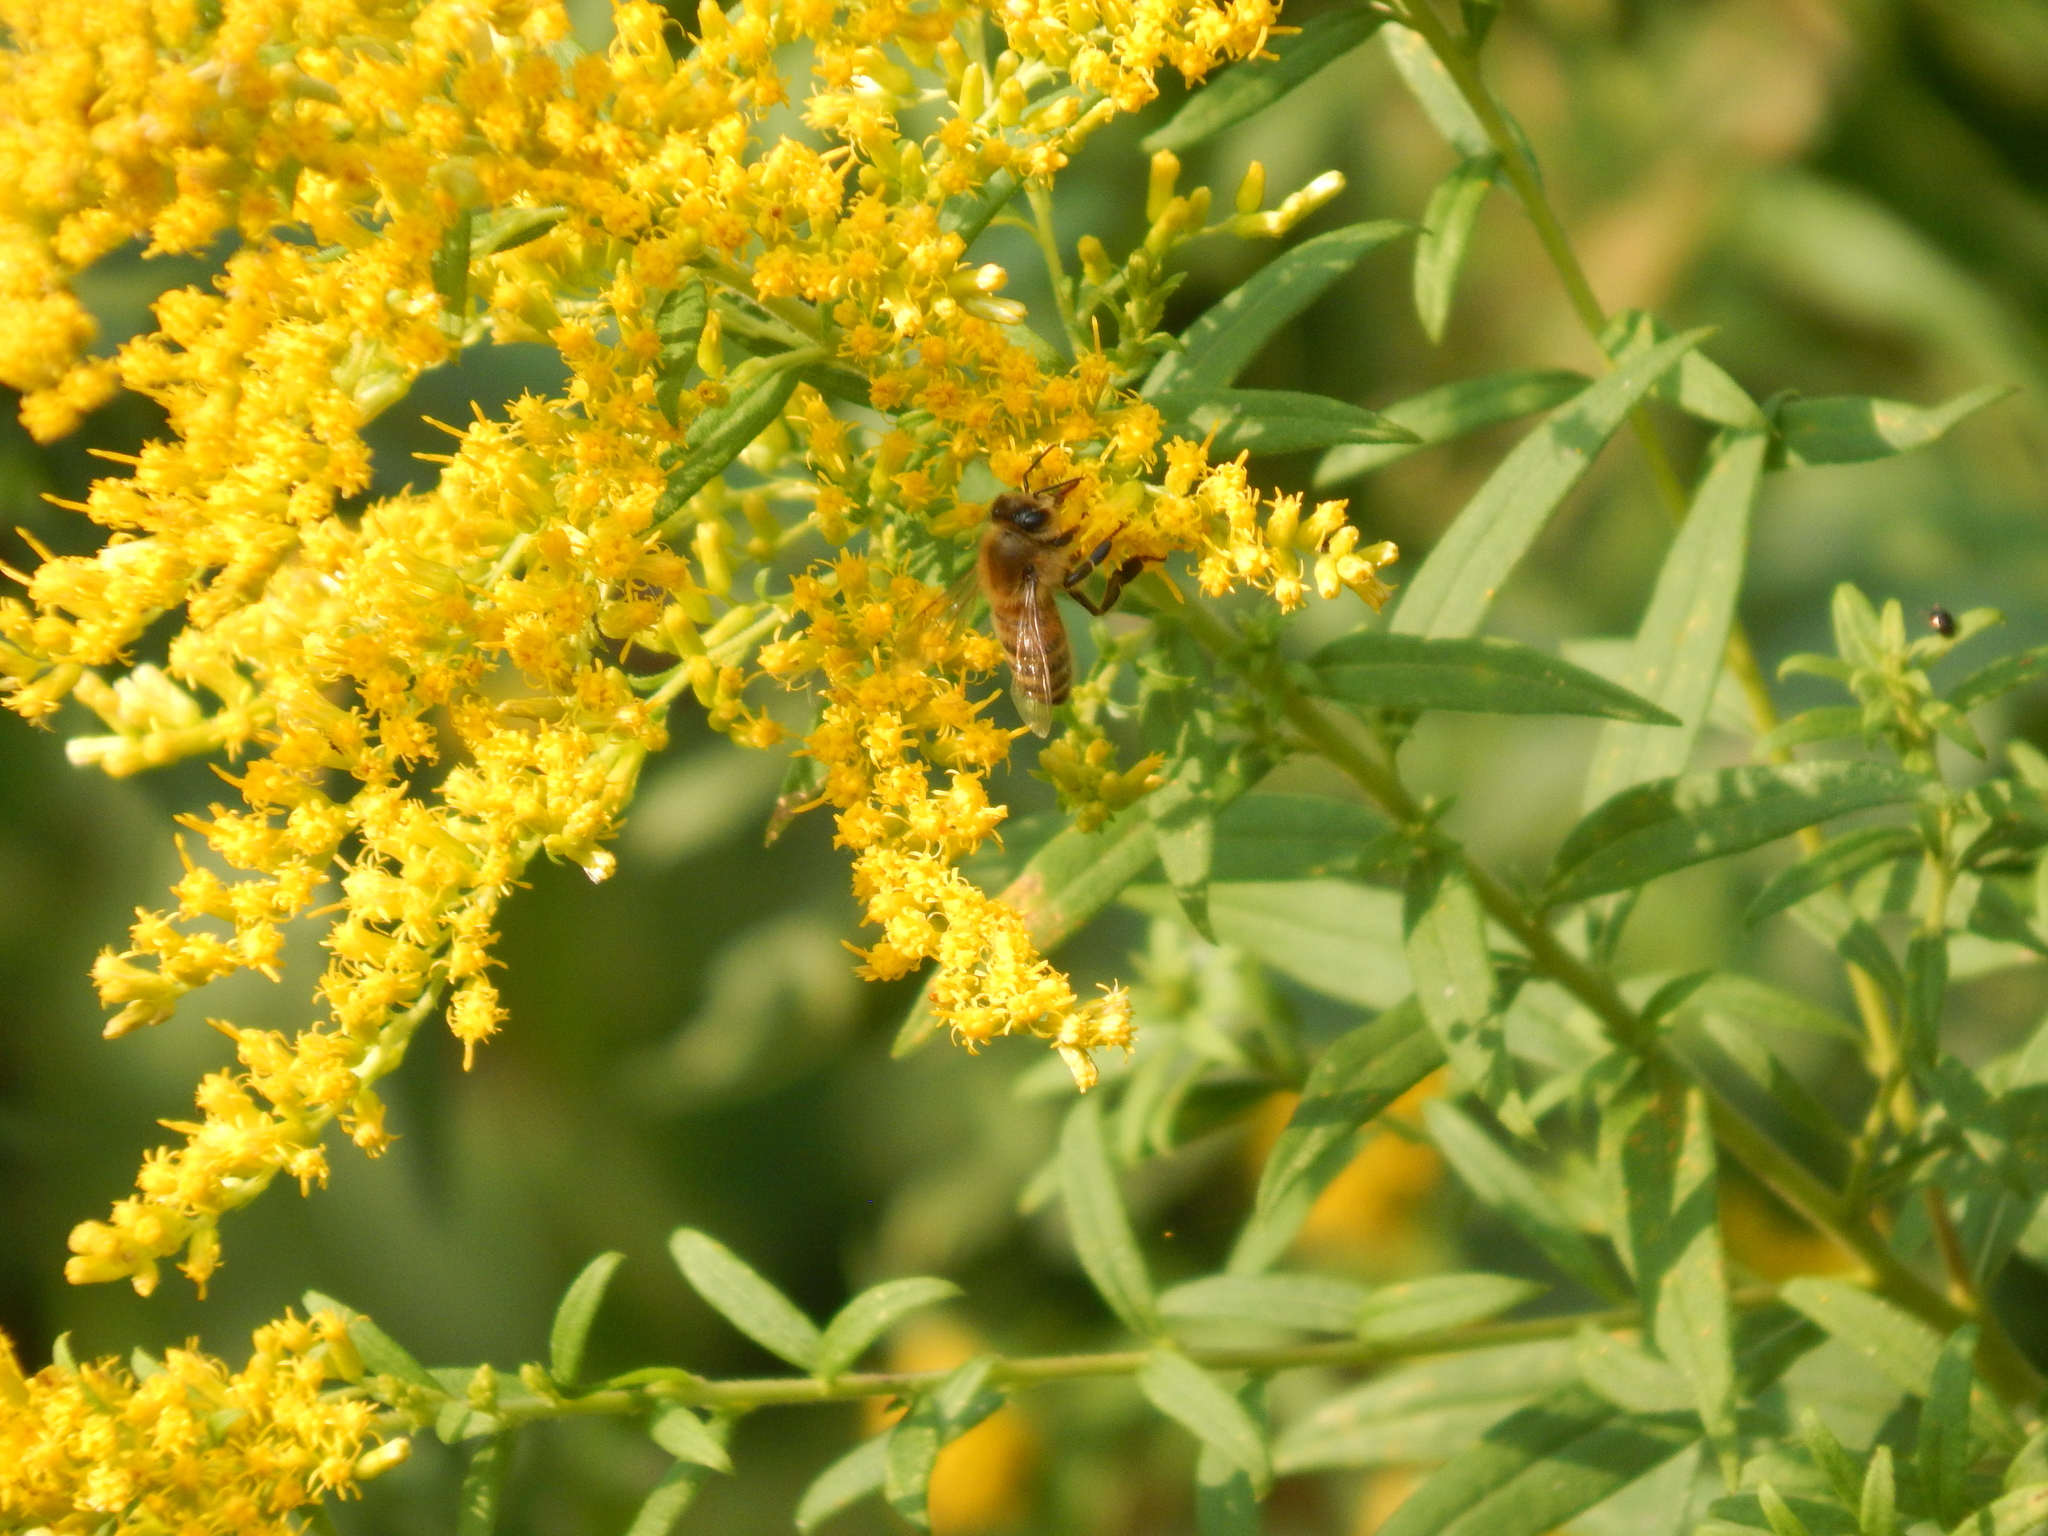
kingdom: Animalia
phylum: Arthropoda
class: Insecta
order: Hymenoptera
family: Apidae
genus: Apis
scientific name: Apis mellifera
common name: Honey bee
